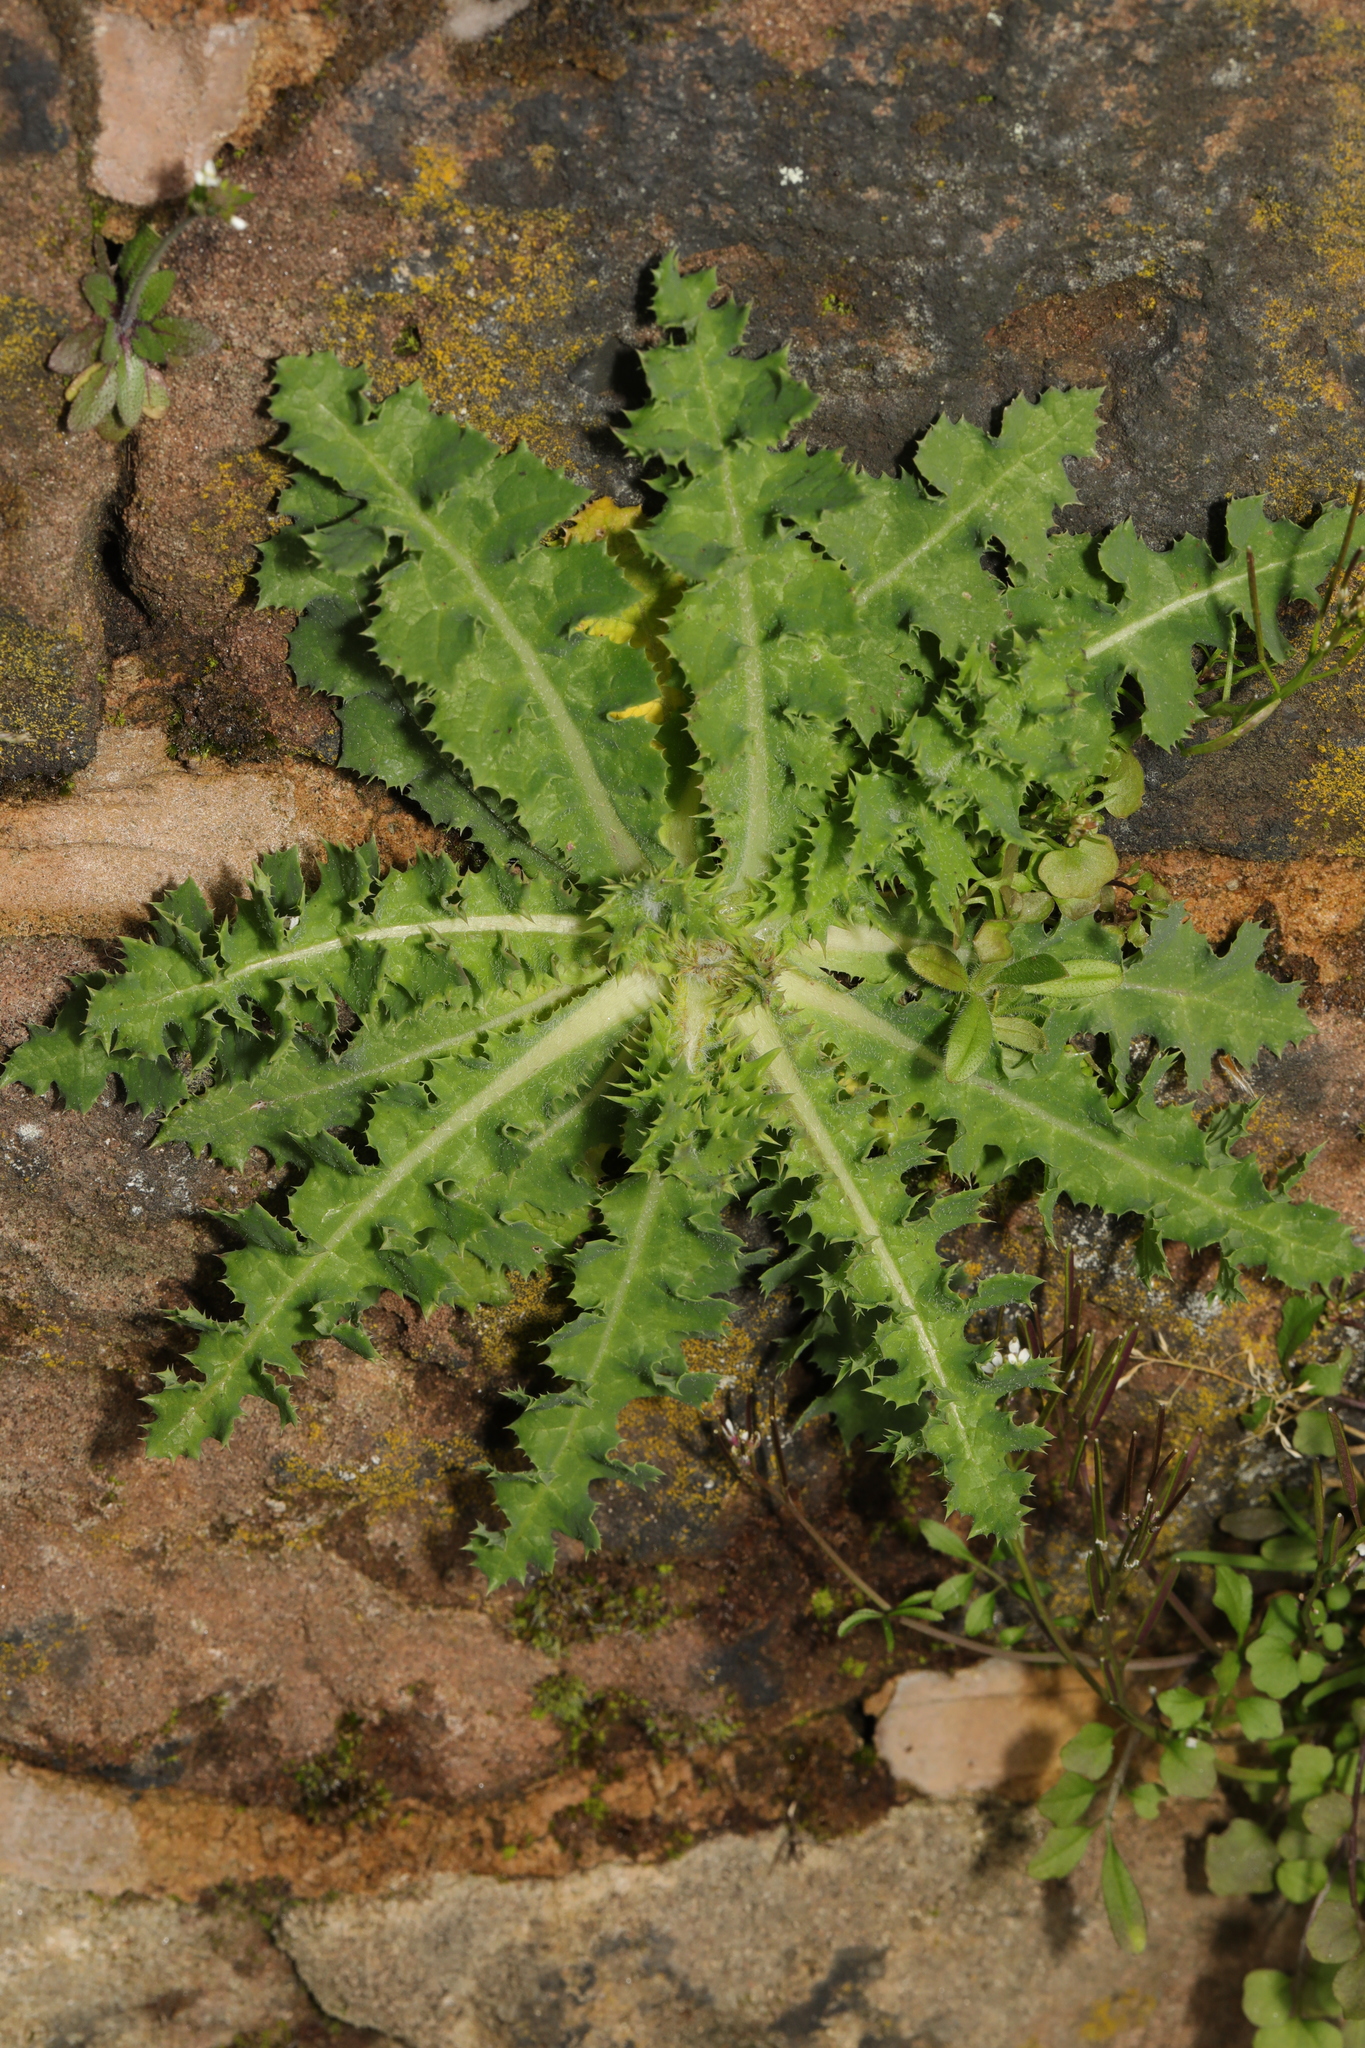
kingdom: Plantae
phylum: Tracheophyta
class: Magnoliopsida
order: Asterales
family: Asteraceae
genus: Sonchus
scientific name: Sonchus asper
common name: Prickly sow-thistle
